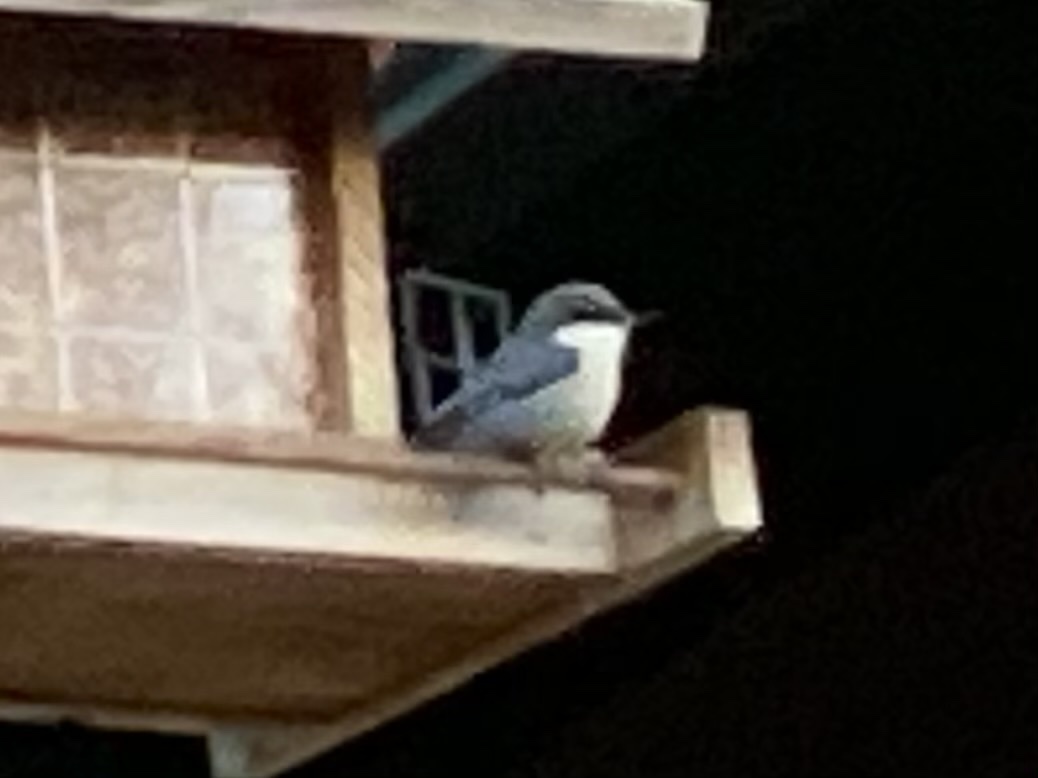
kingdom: Animalia
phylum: Chordata
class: Aves
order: Passeriformes
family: Sittidae
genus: Sitta
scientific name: Sitta pygmaea
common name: Pygmy nuthatch
